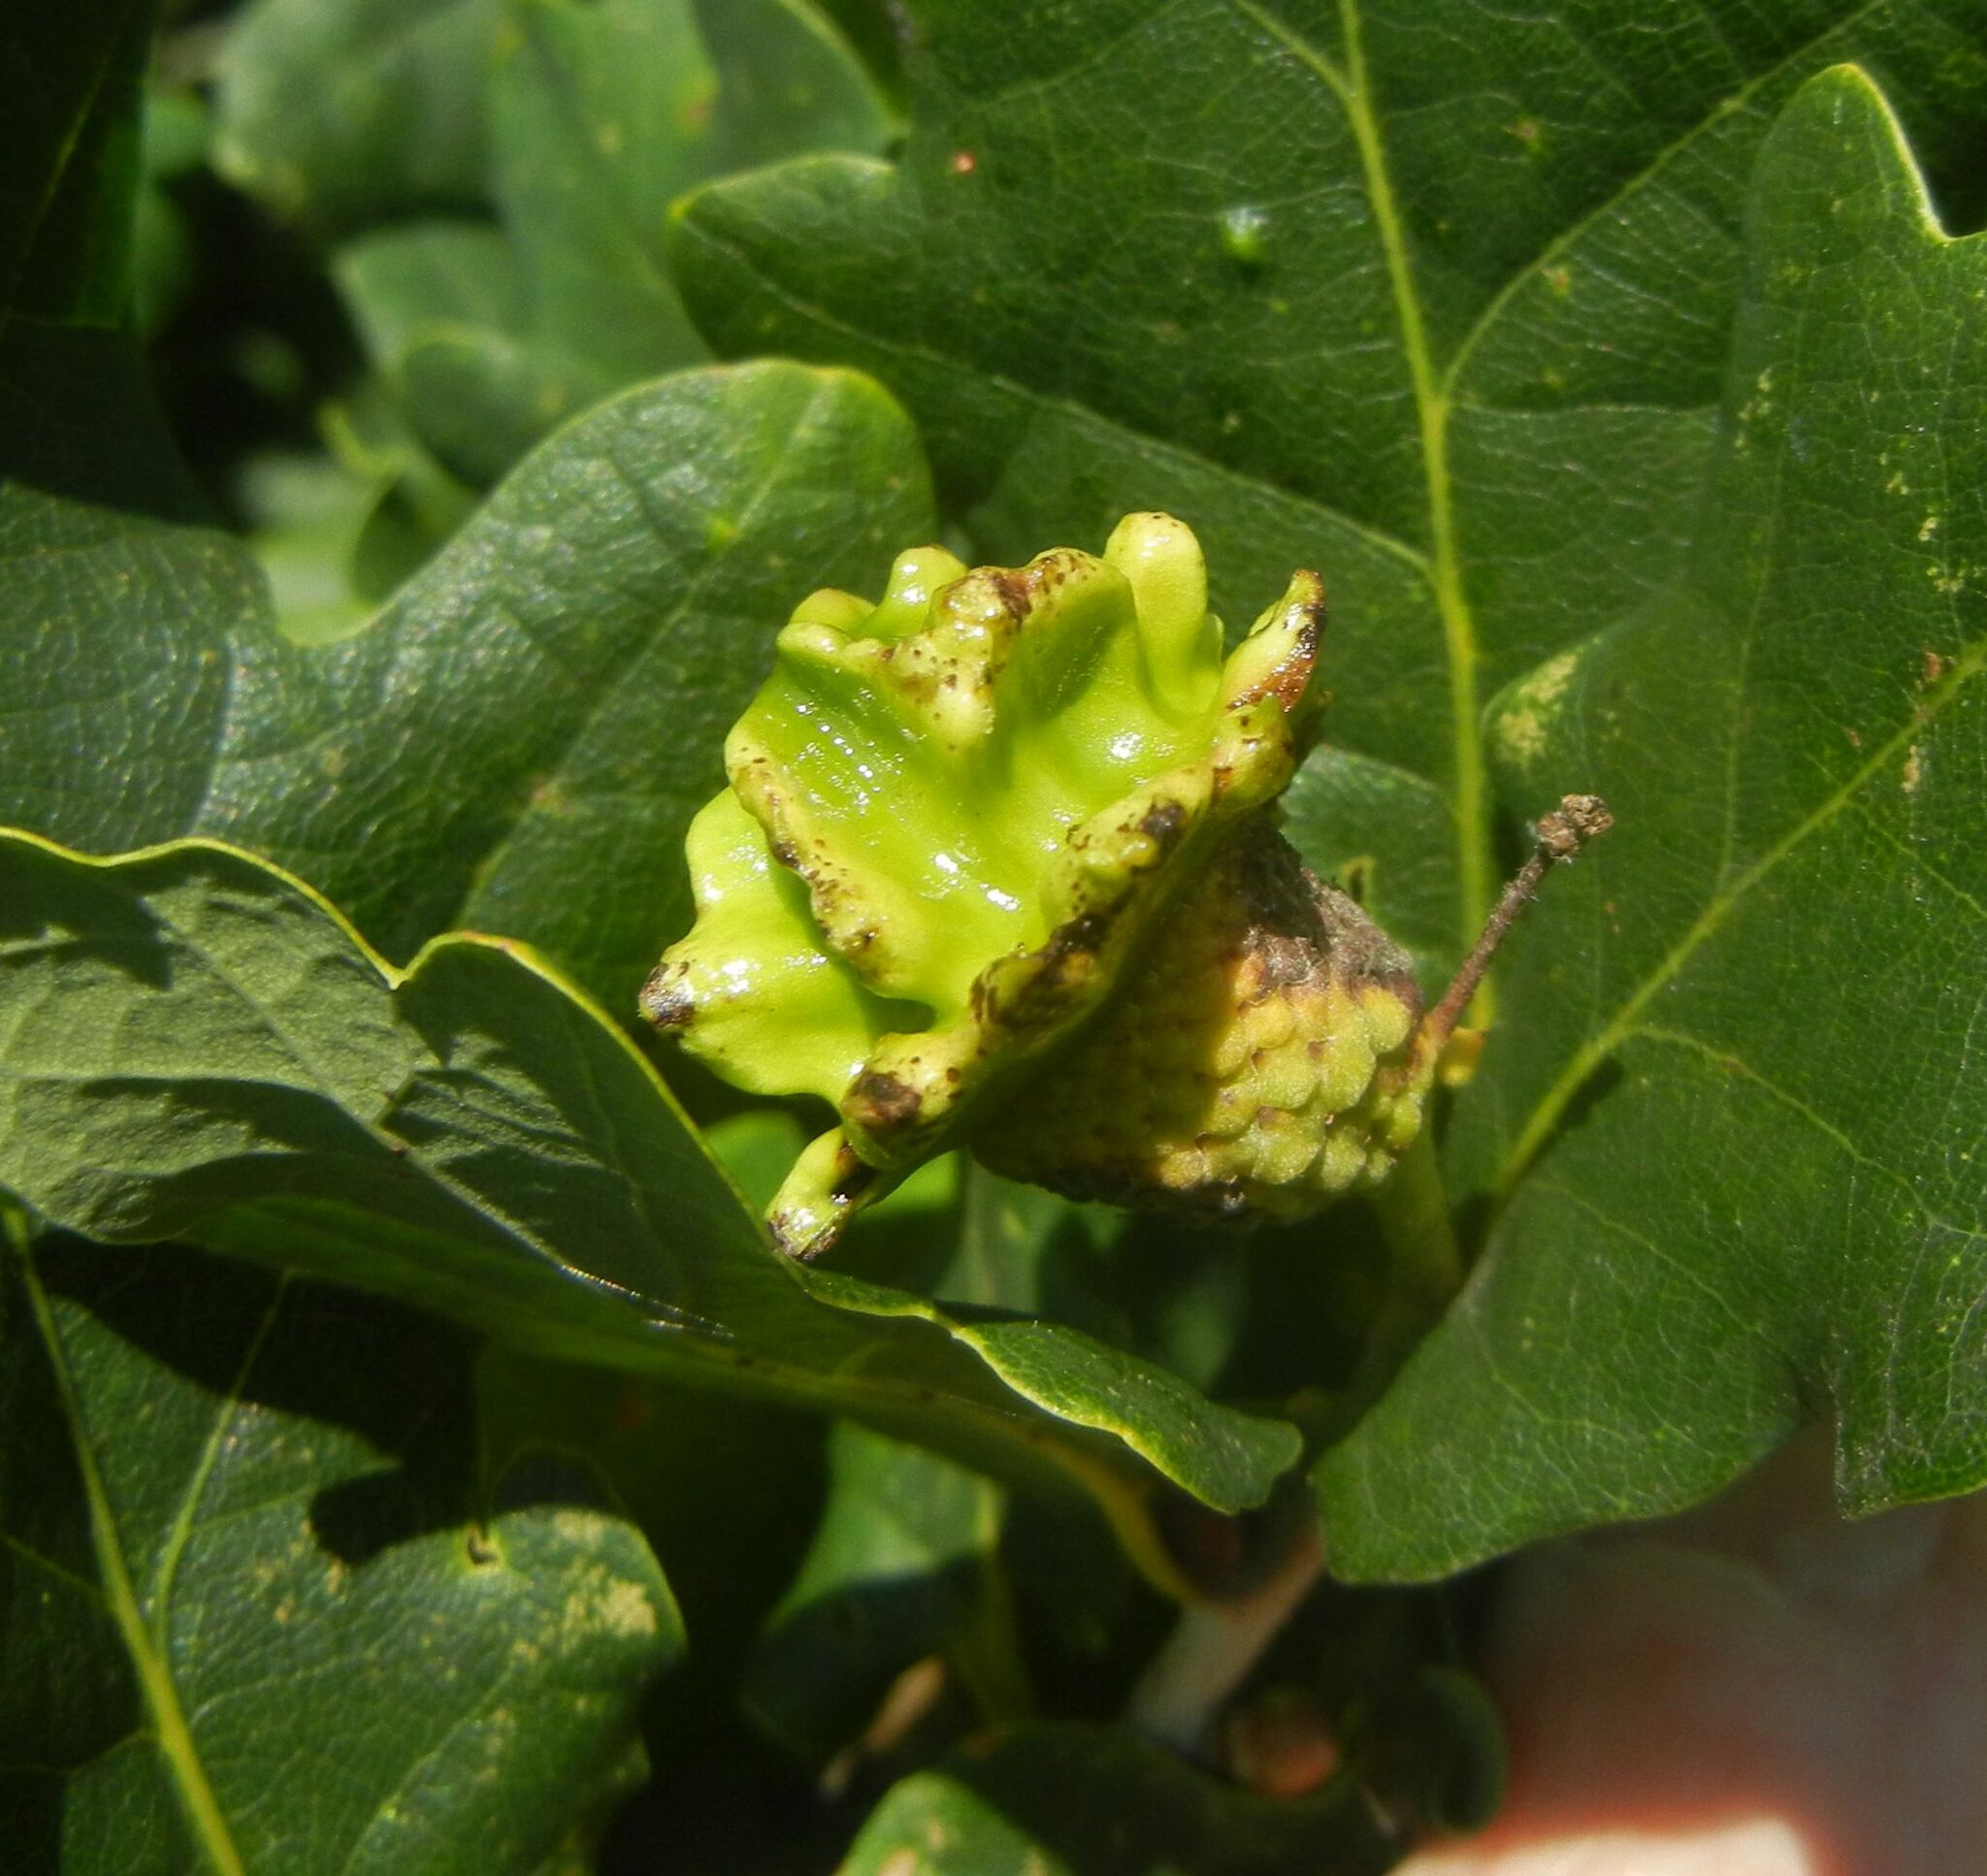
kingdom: Animalia
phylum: Arthropoda
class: Insecta
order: Hymenoptera
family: Cynipidae
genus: Andricus
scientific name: Andricus quercuscalicis
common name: Knopper gall
